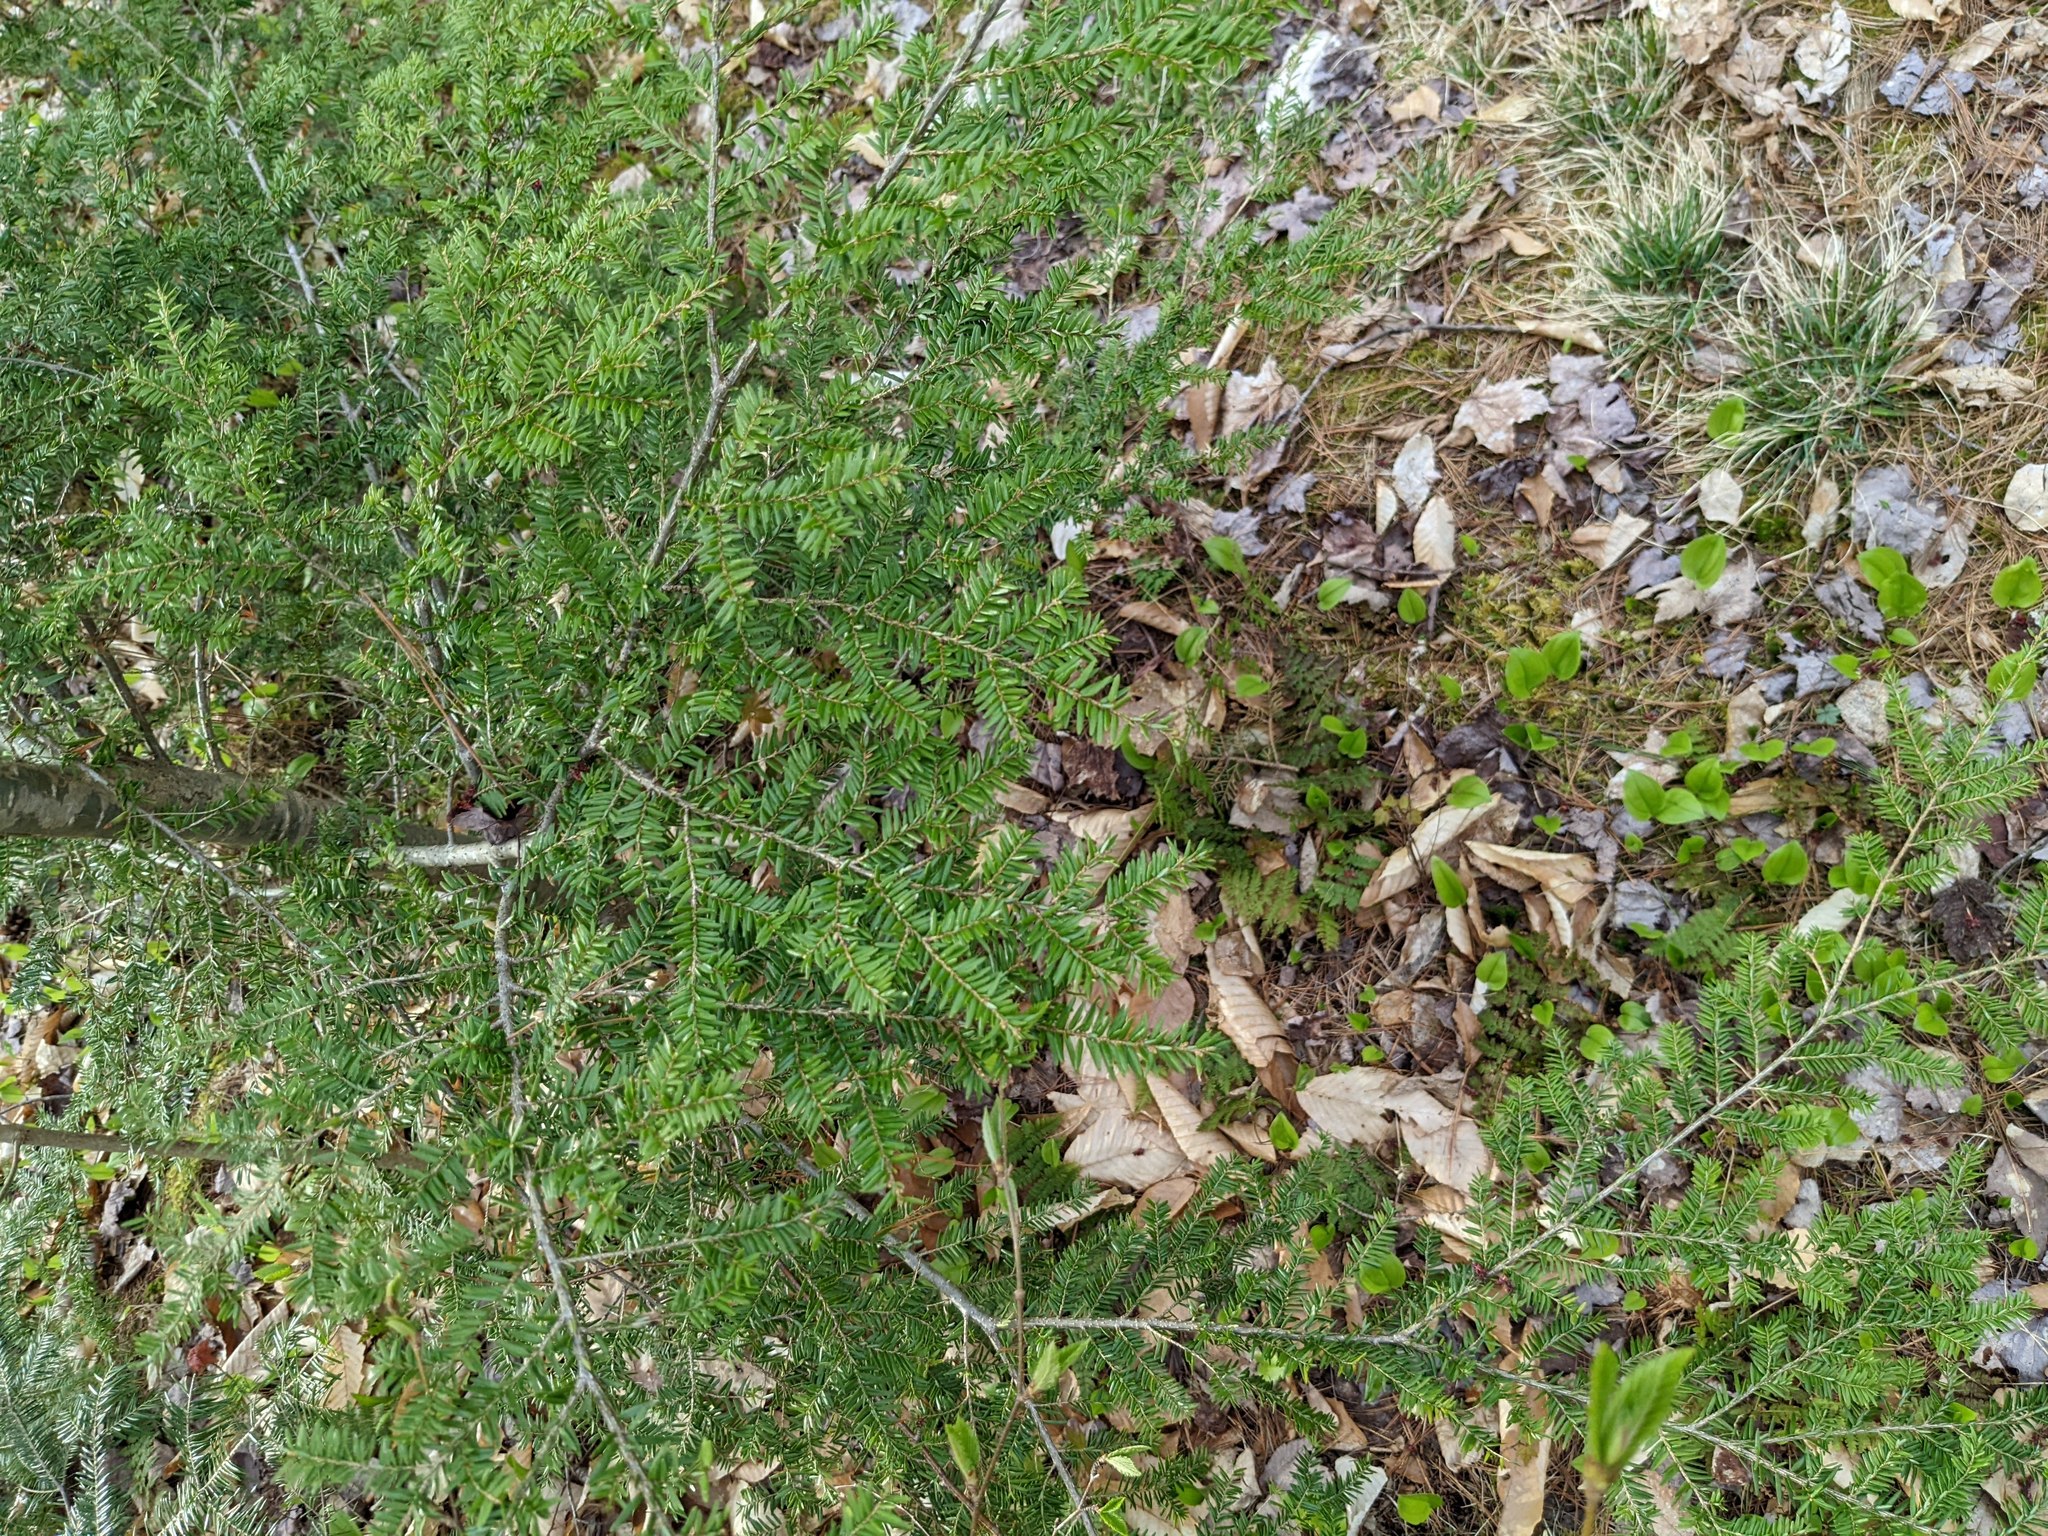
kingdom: Plantae
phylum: Tracheophyta
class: Pinopsida
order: Pinales
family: Pinaceae
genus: Tsuga
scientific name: Tsuga canadensis
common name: Eastern hemlock
